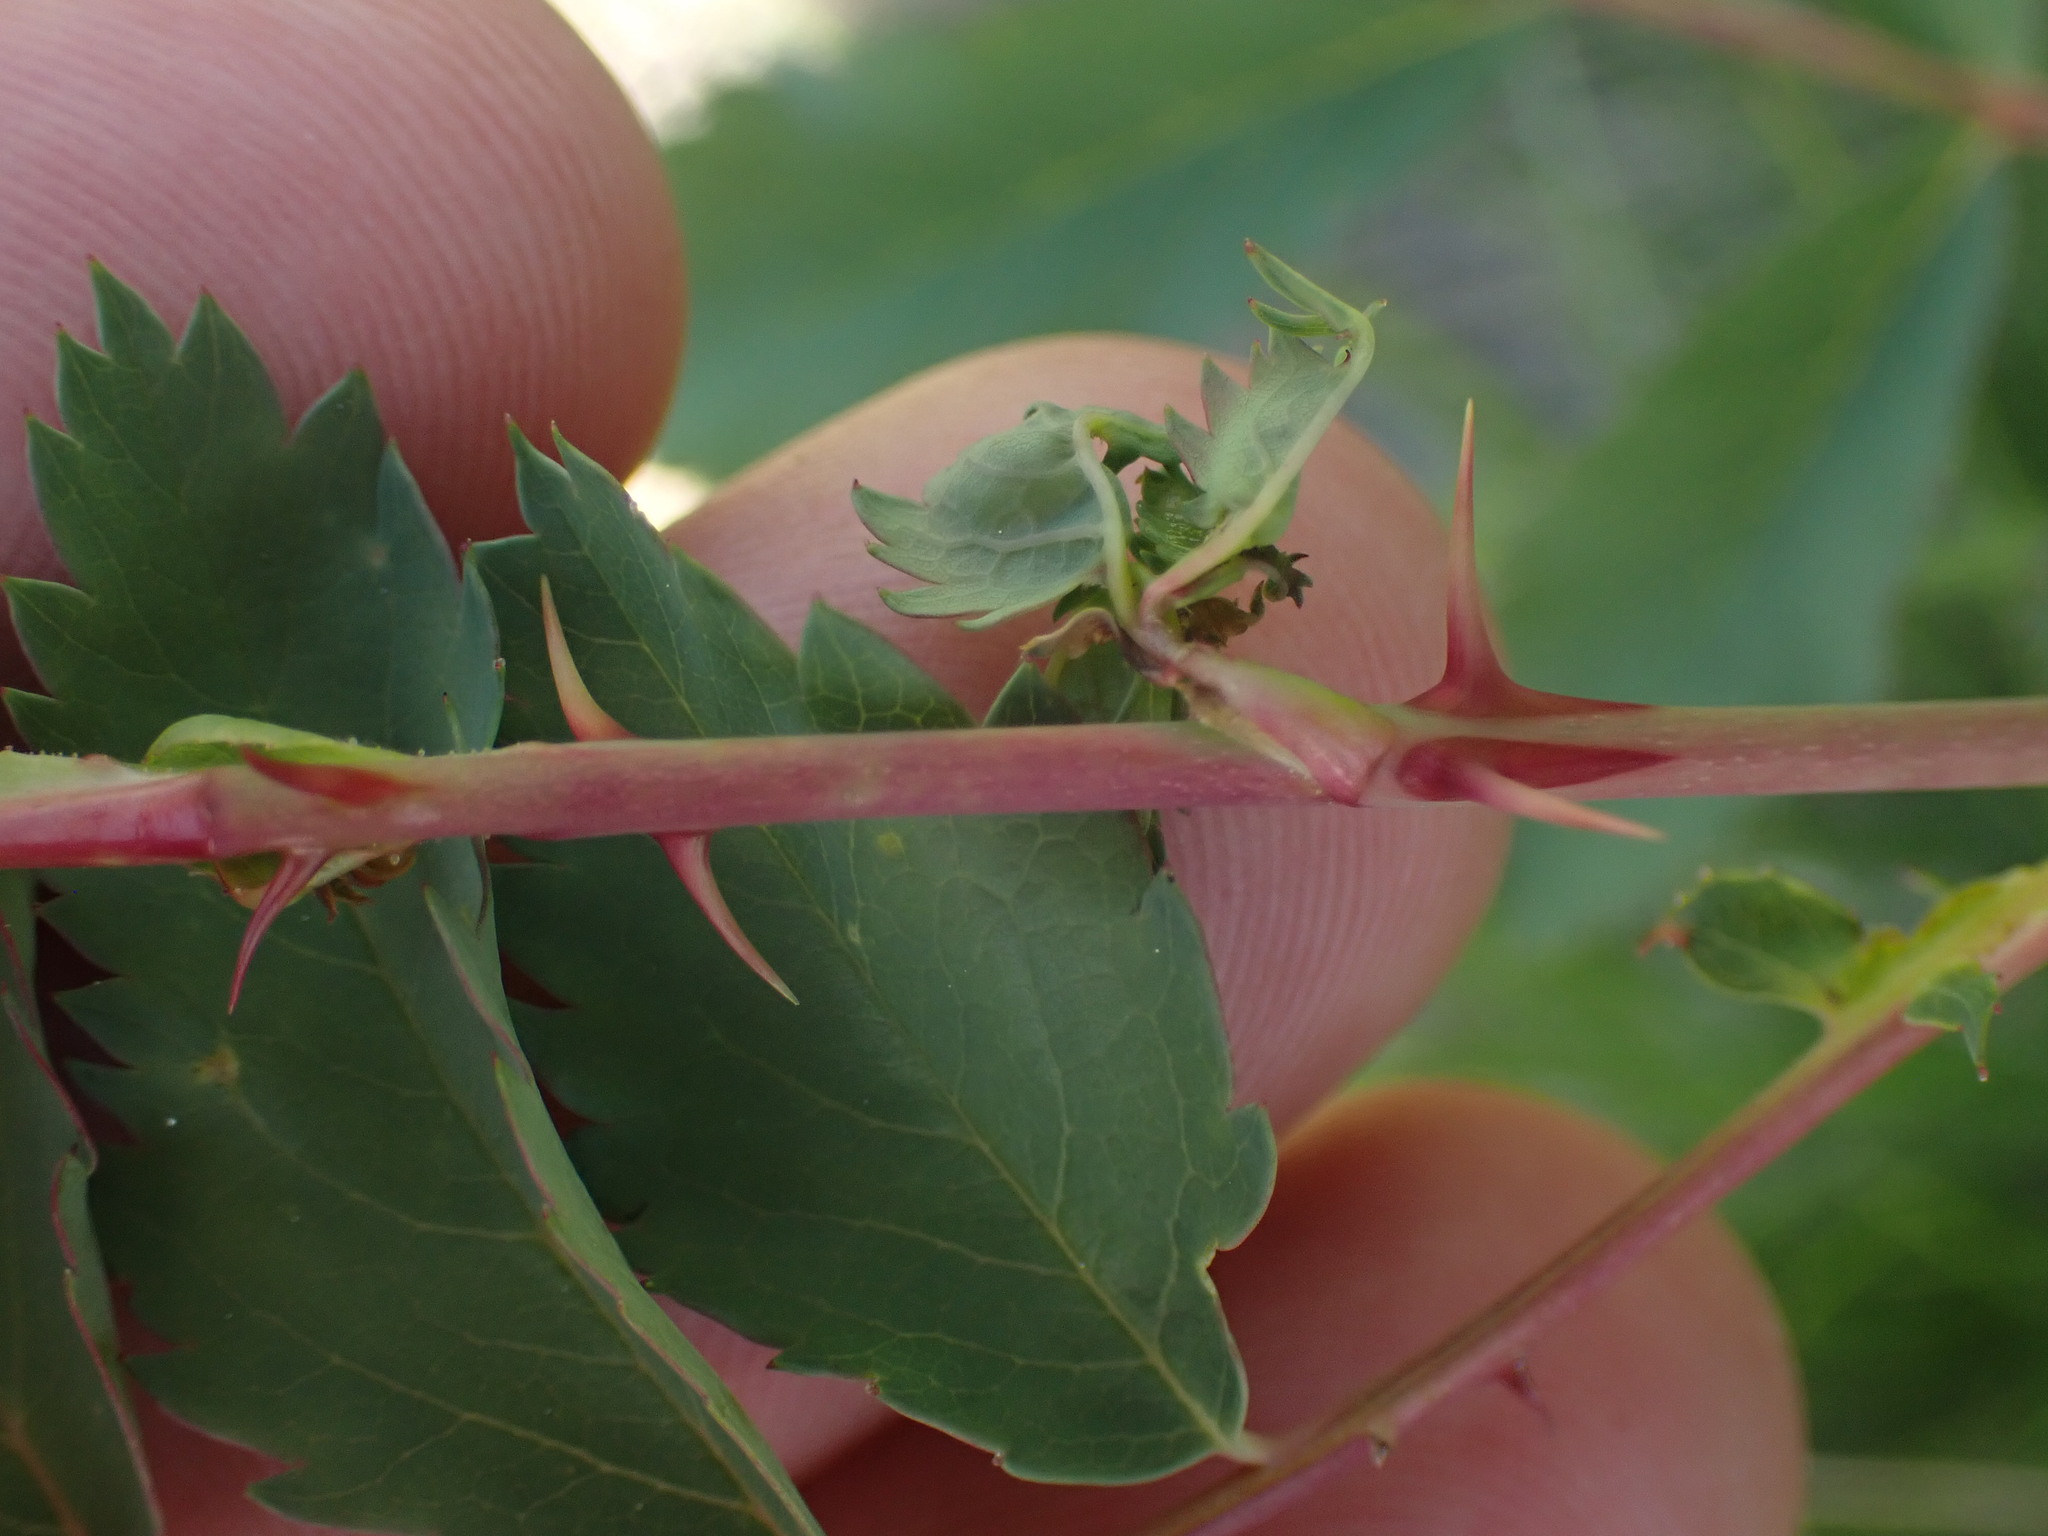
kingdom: Plantae
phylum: Tracheophyta
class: Magnoliopsida
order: Rosales
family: Rosaceae
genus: Rosa
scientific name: Rosa woodsii
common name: Woods's rose
